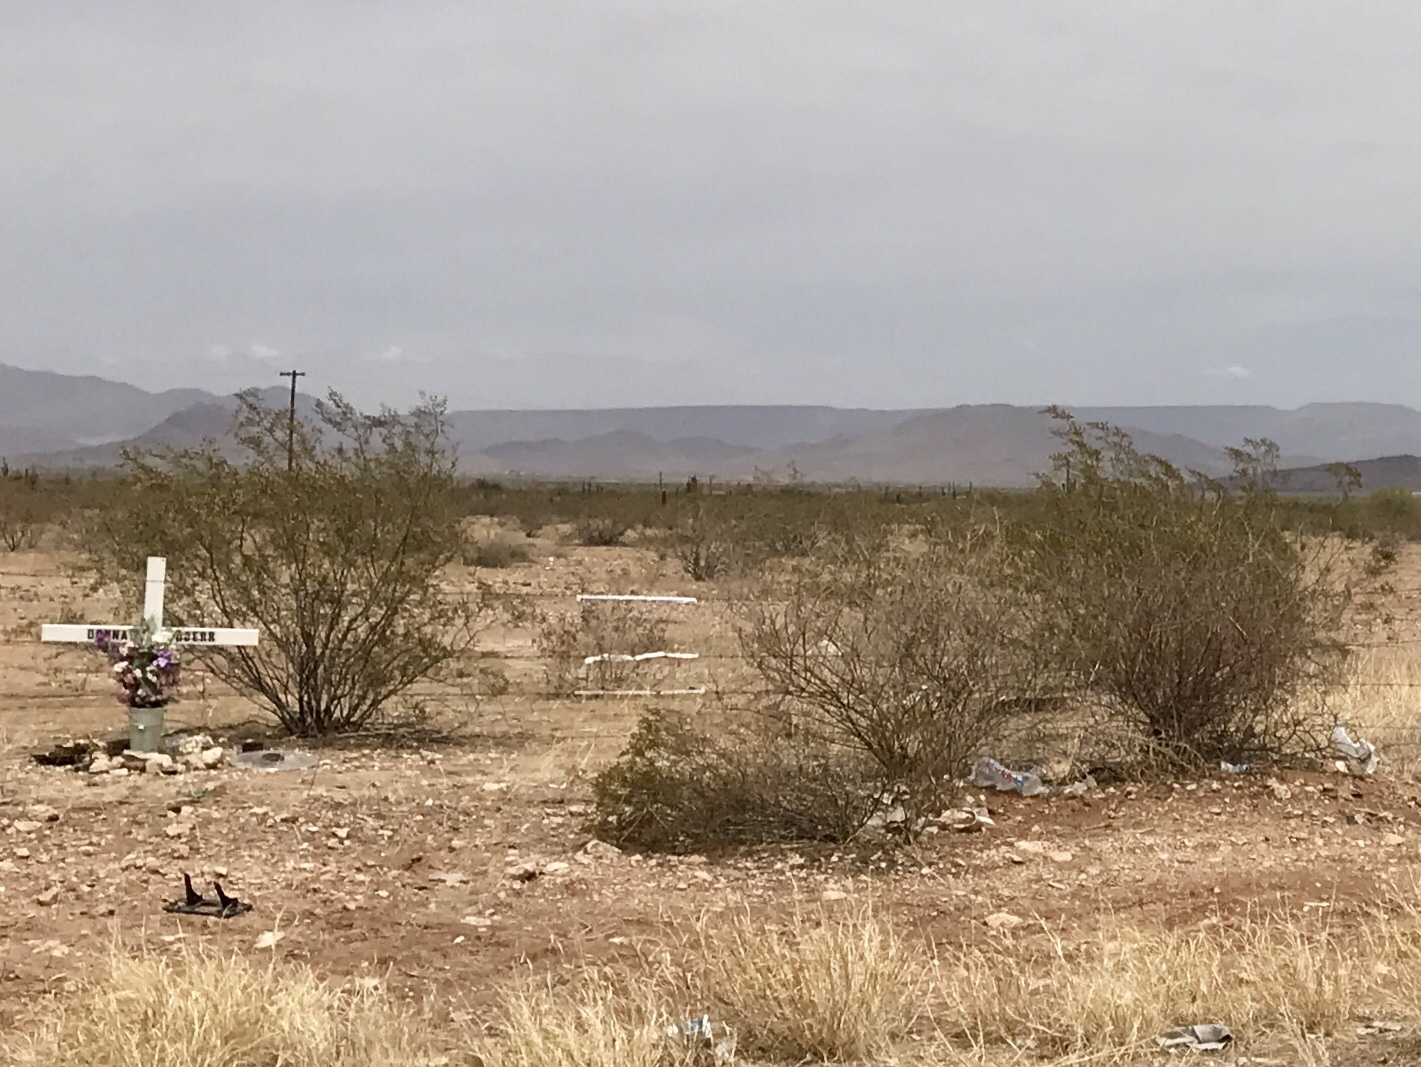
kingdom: Plantae
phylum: Tracheophyta
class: Magnoliopsida
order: Zygophyllales
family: Zygophyllaceae
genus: Larrea
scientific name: Larrea tridentata
